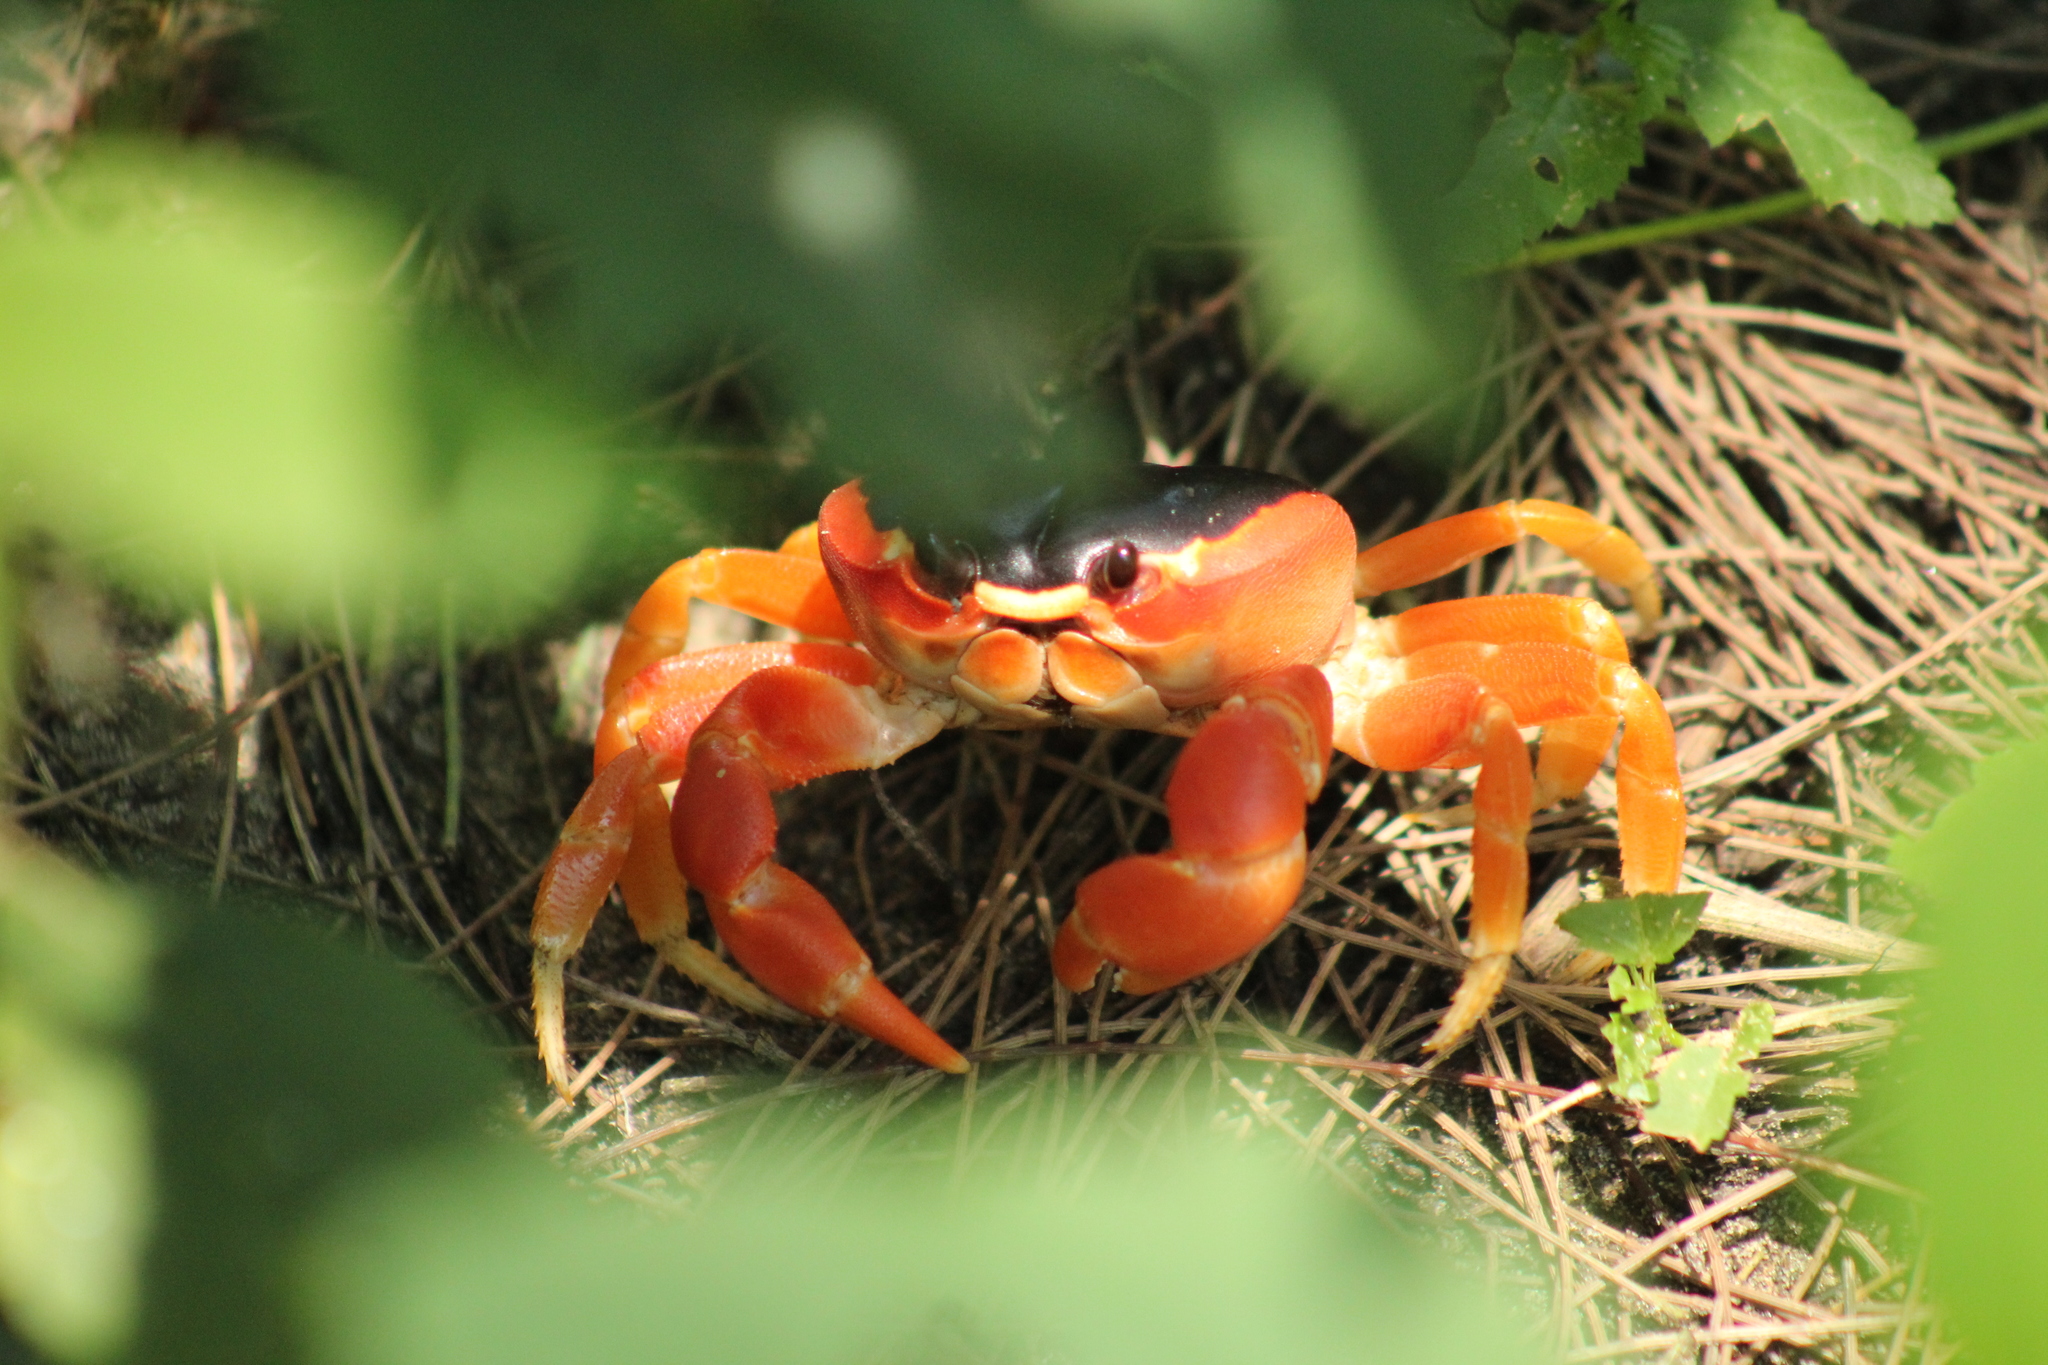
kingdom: Animalia
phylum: Arthropoda
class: Malacostraca
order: Decapoda
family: Gecarcinidae
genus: Gecarcinus
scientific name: Gecarcinus lateralis
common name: Bermuda land crab
